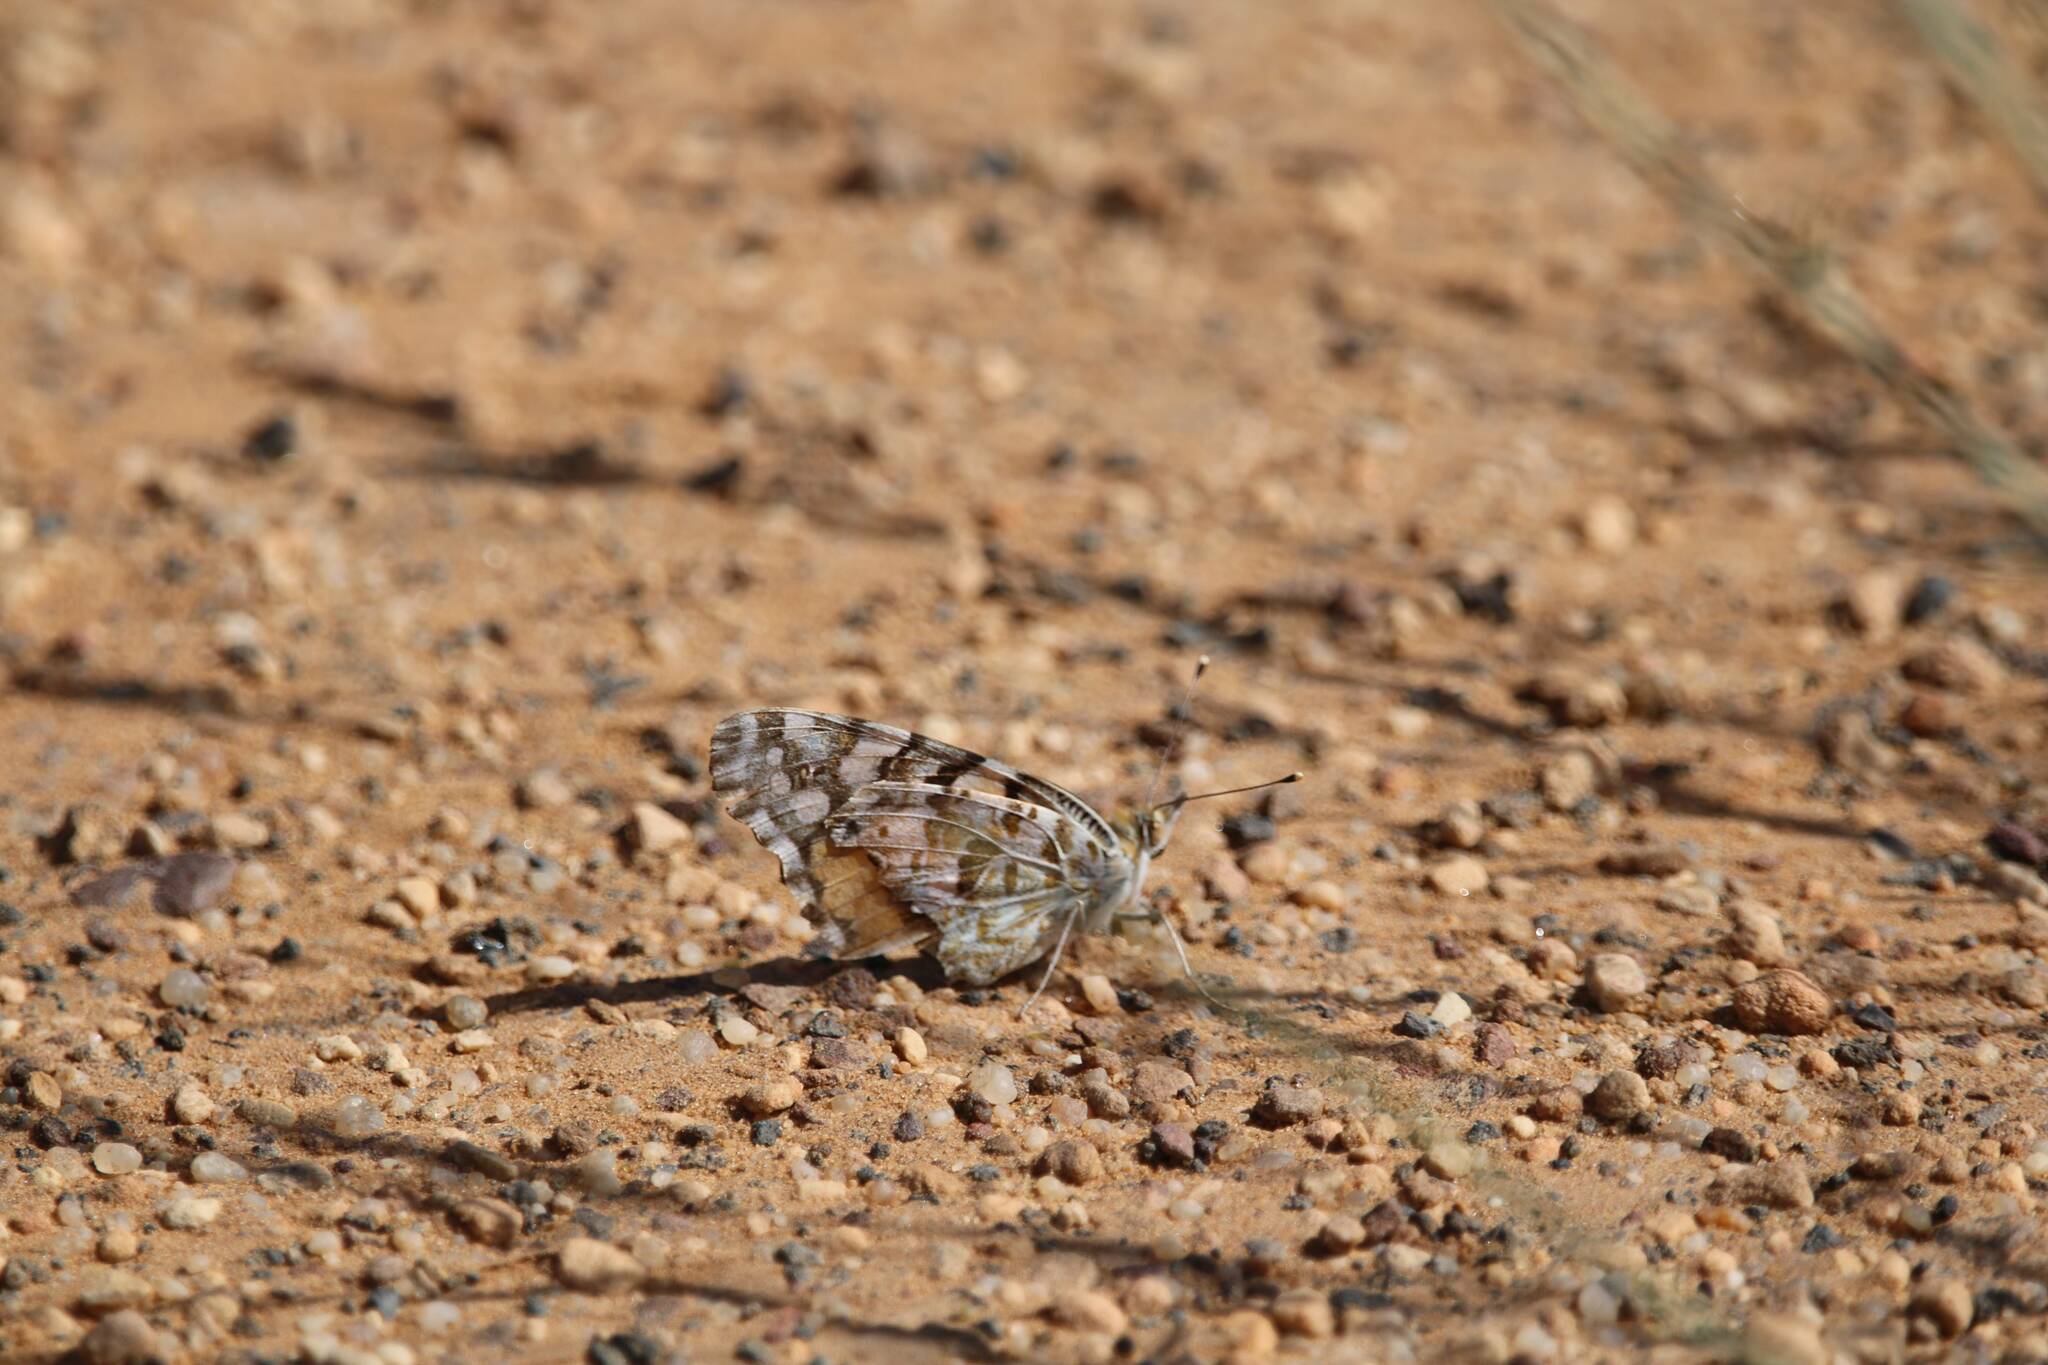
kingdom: Animalia
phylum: Arthropoda
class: Insecta
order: Lepidoptera
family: Nymphalidae
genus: Vanessa
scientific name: Vanessa cardui
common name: Painted lady
